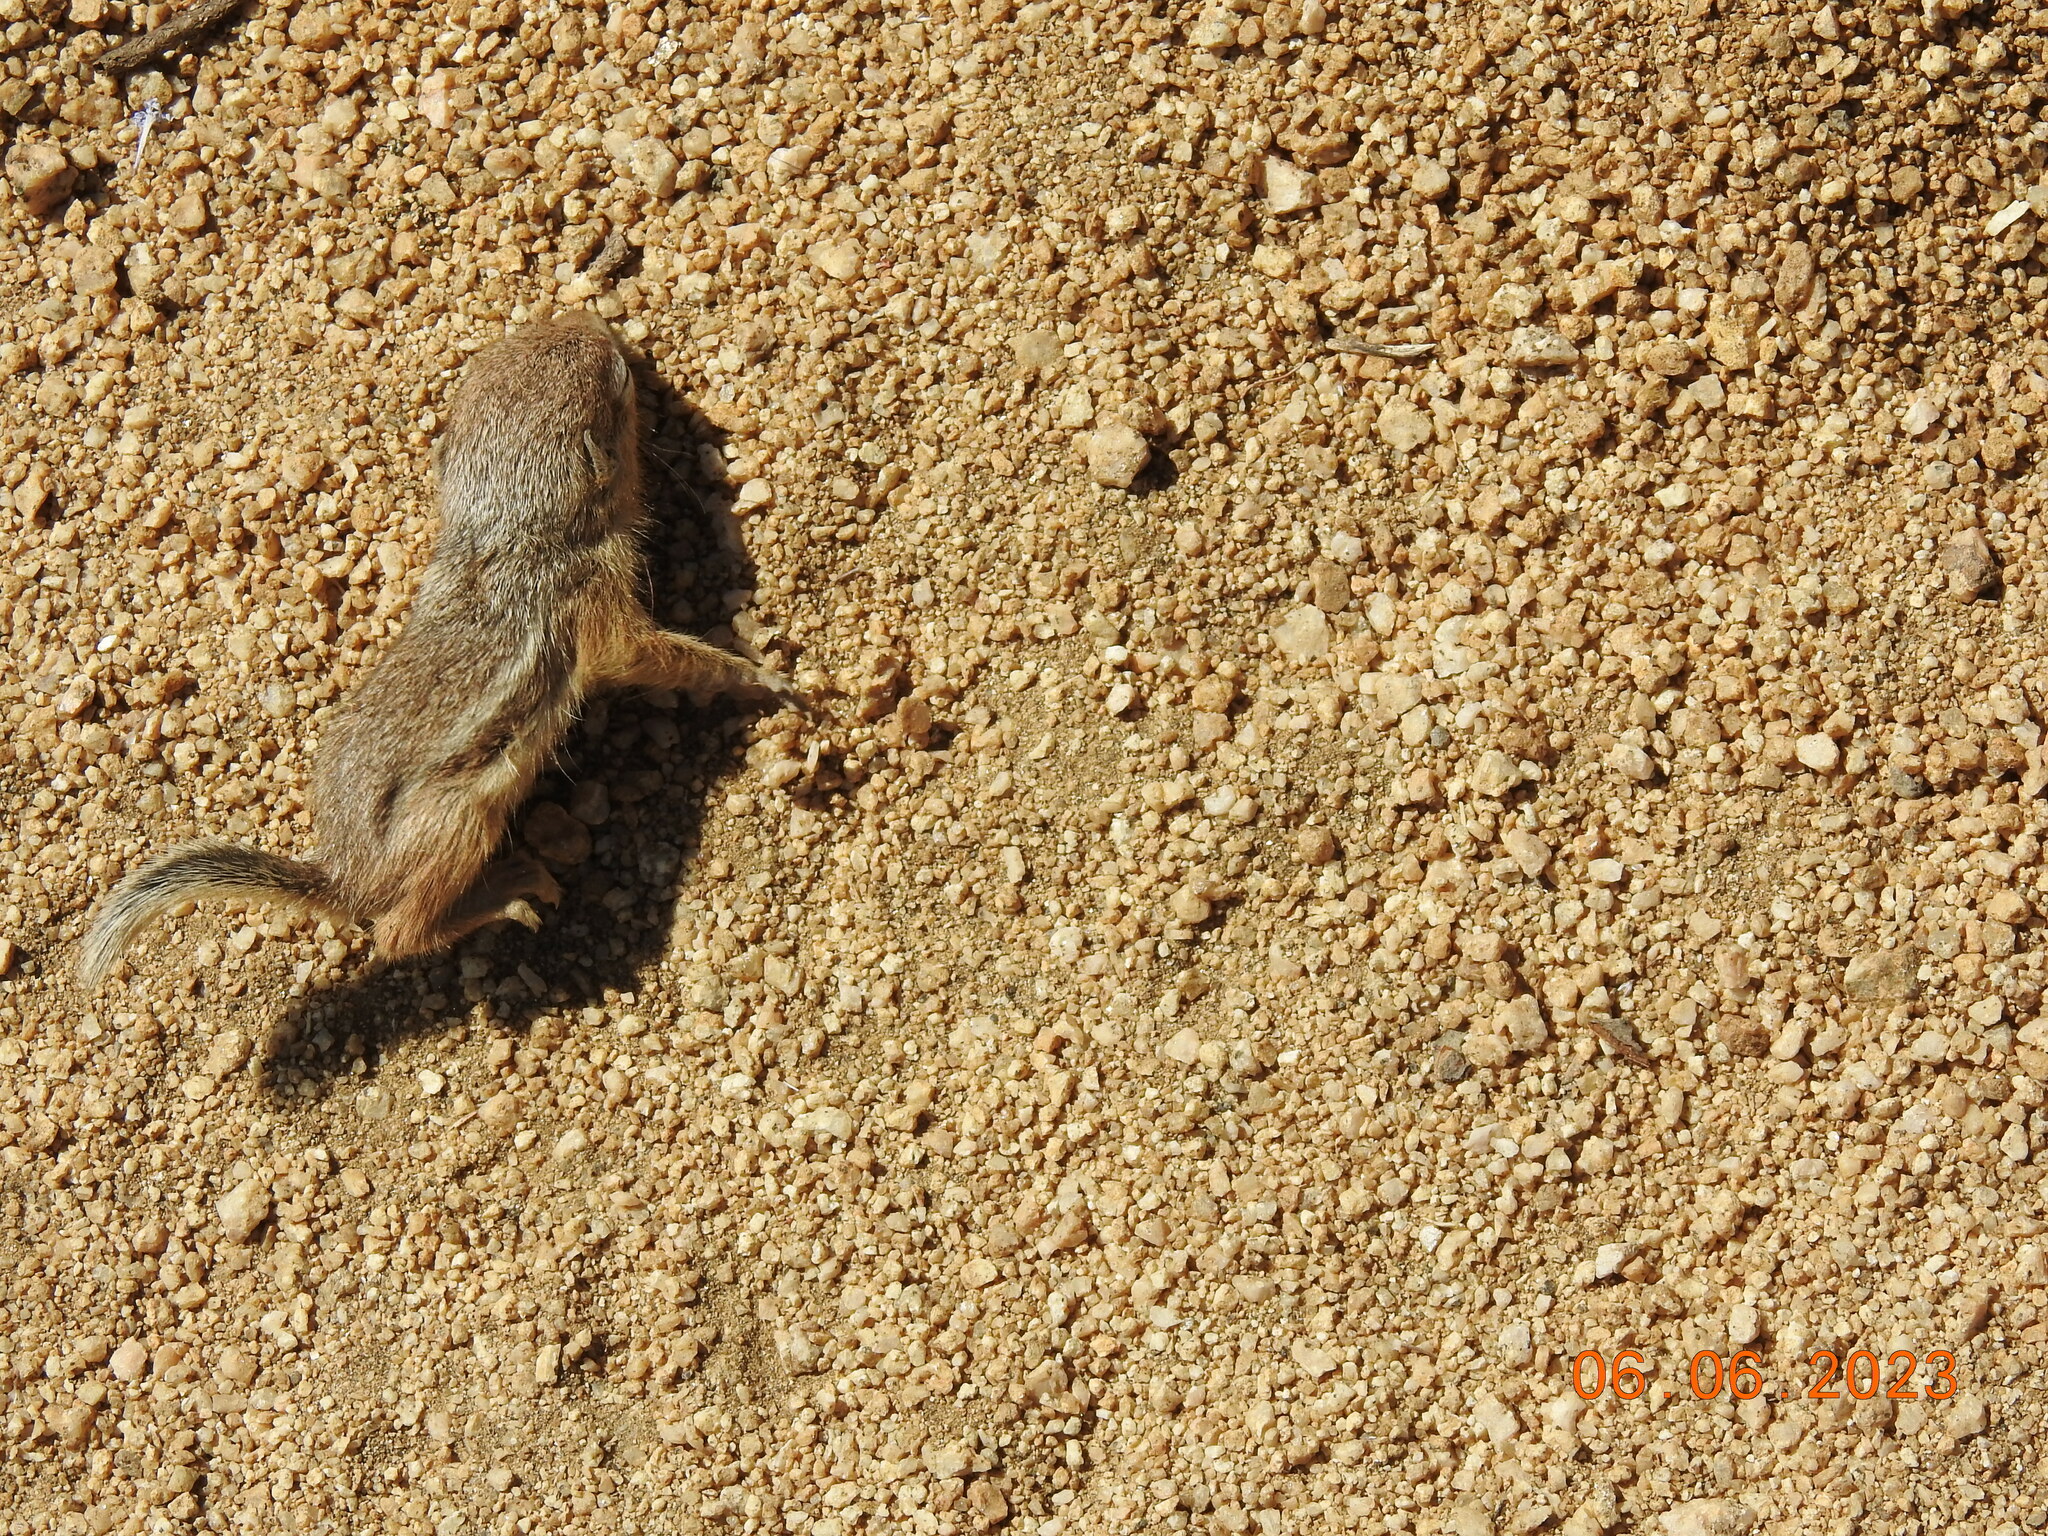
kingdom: Animalia
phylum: Chordata
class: Mammalia
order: Rodentia
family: Sciuridae
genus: Ammospermophilus
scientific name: Ammospermophilus leucurus
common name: White-tailed antelope squirrel
